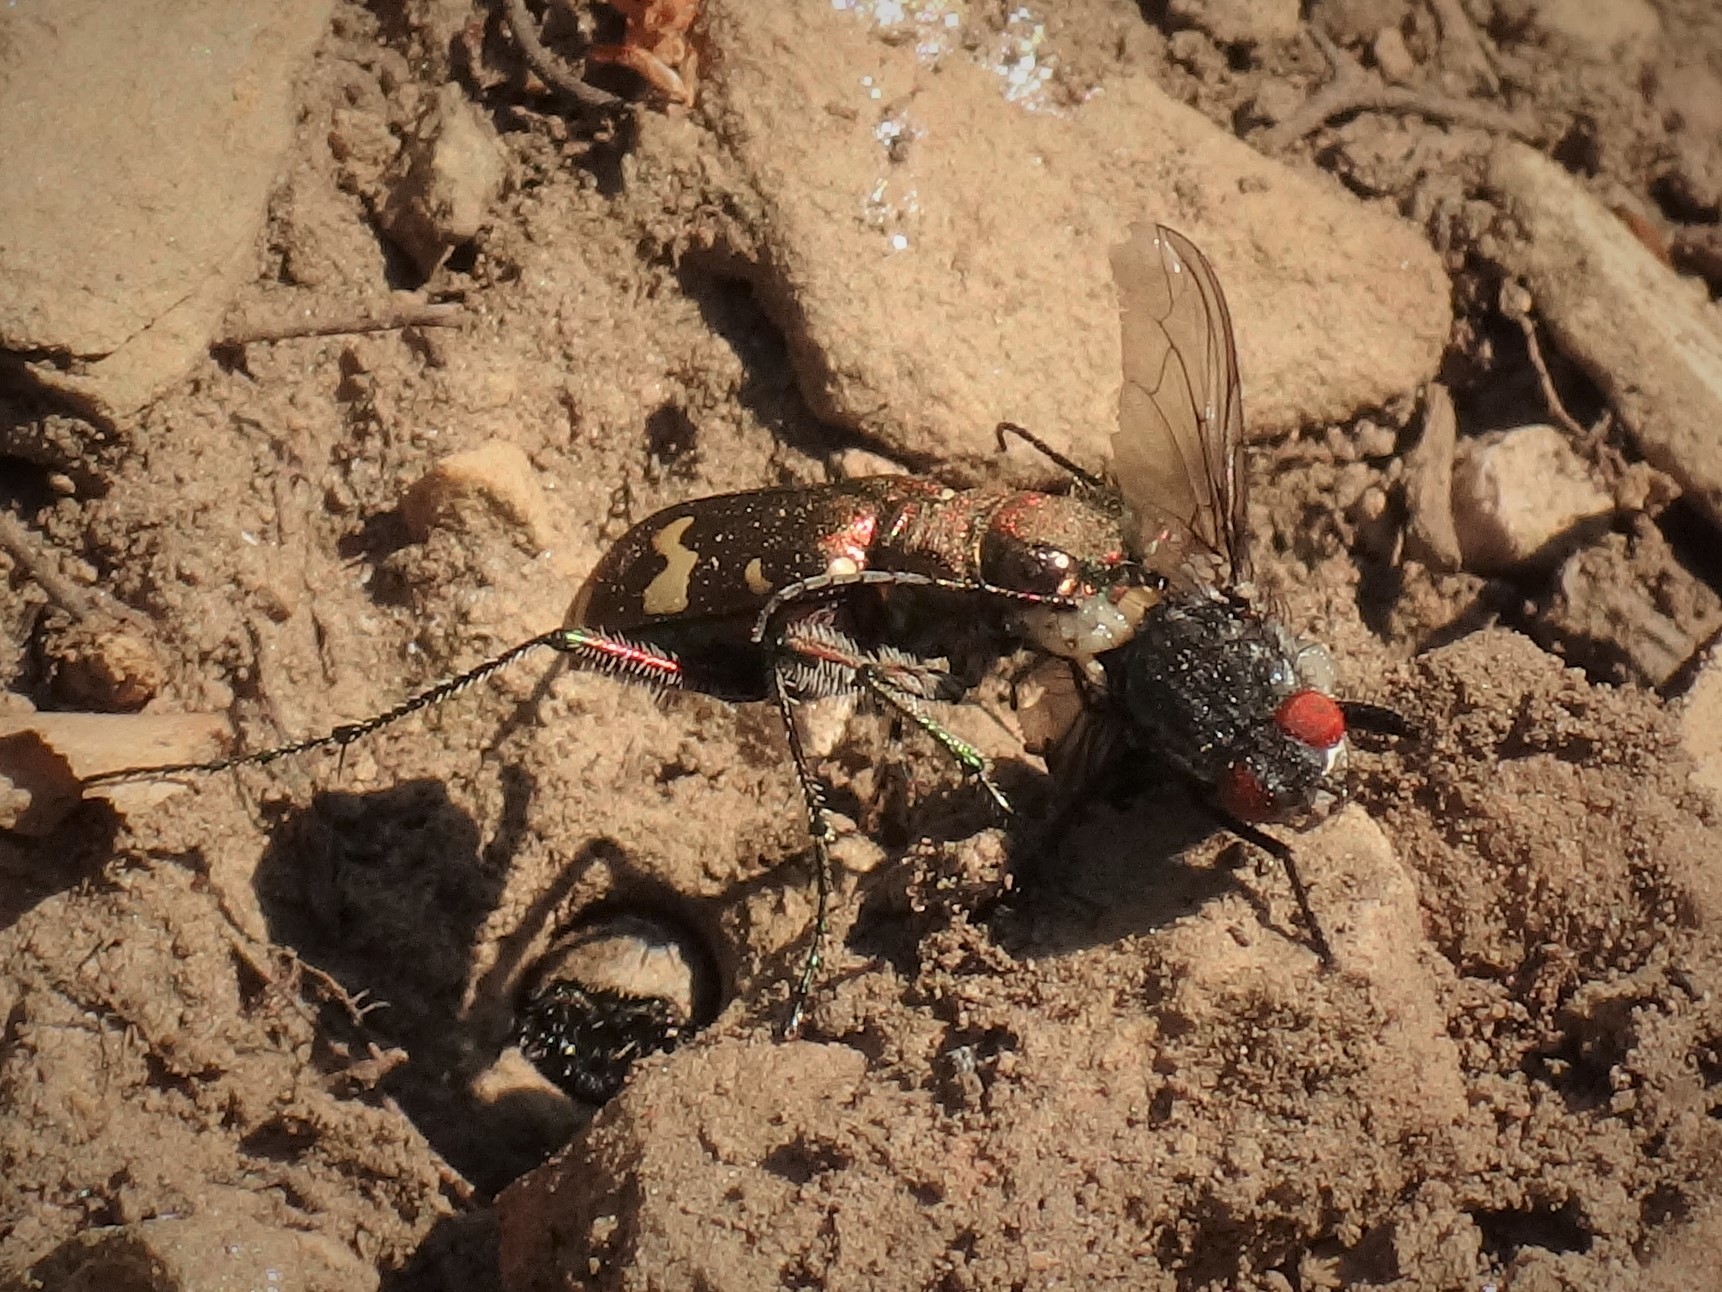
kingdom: Animalia
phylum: Arthropoda
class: Insecta
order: Coleoptera
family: Carabidae
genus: Cicindela
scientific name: Cicindela sylvicola
